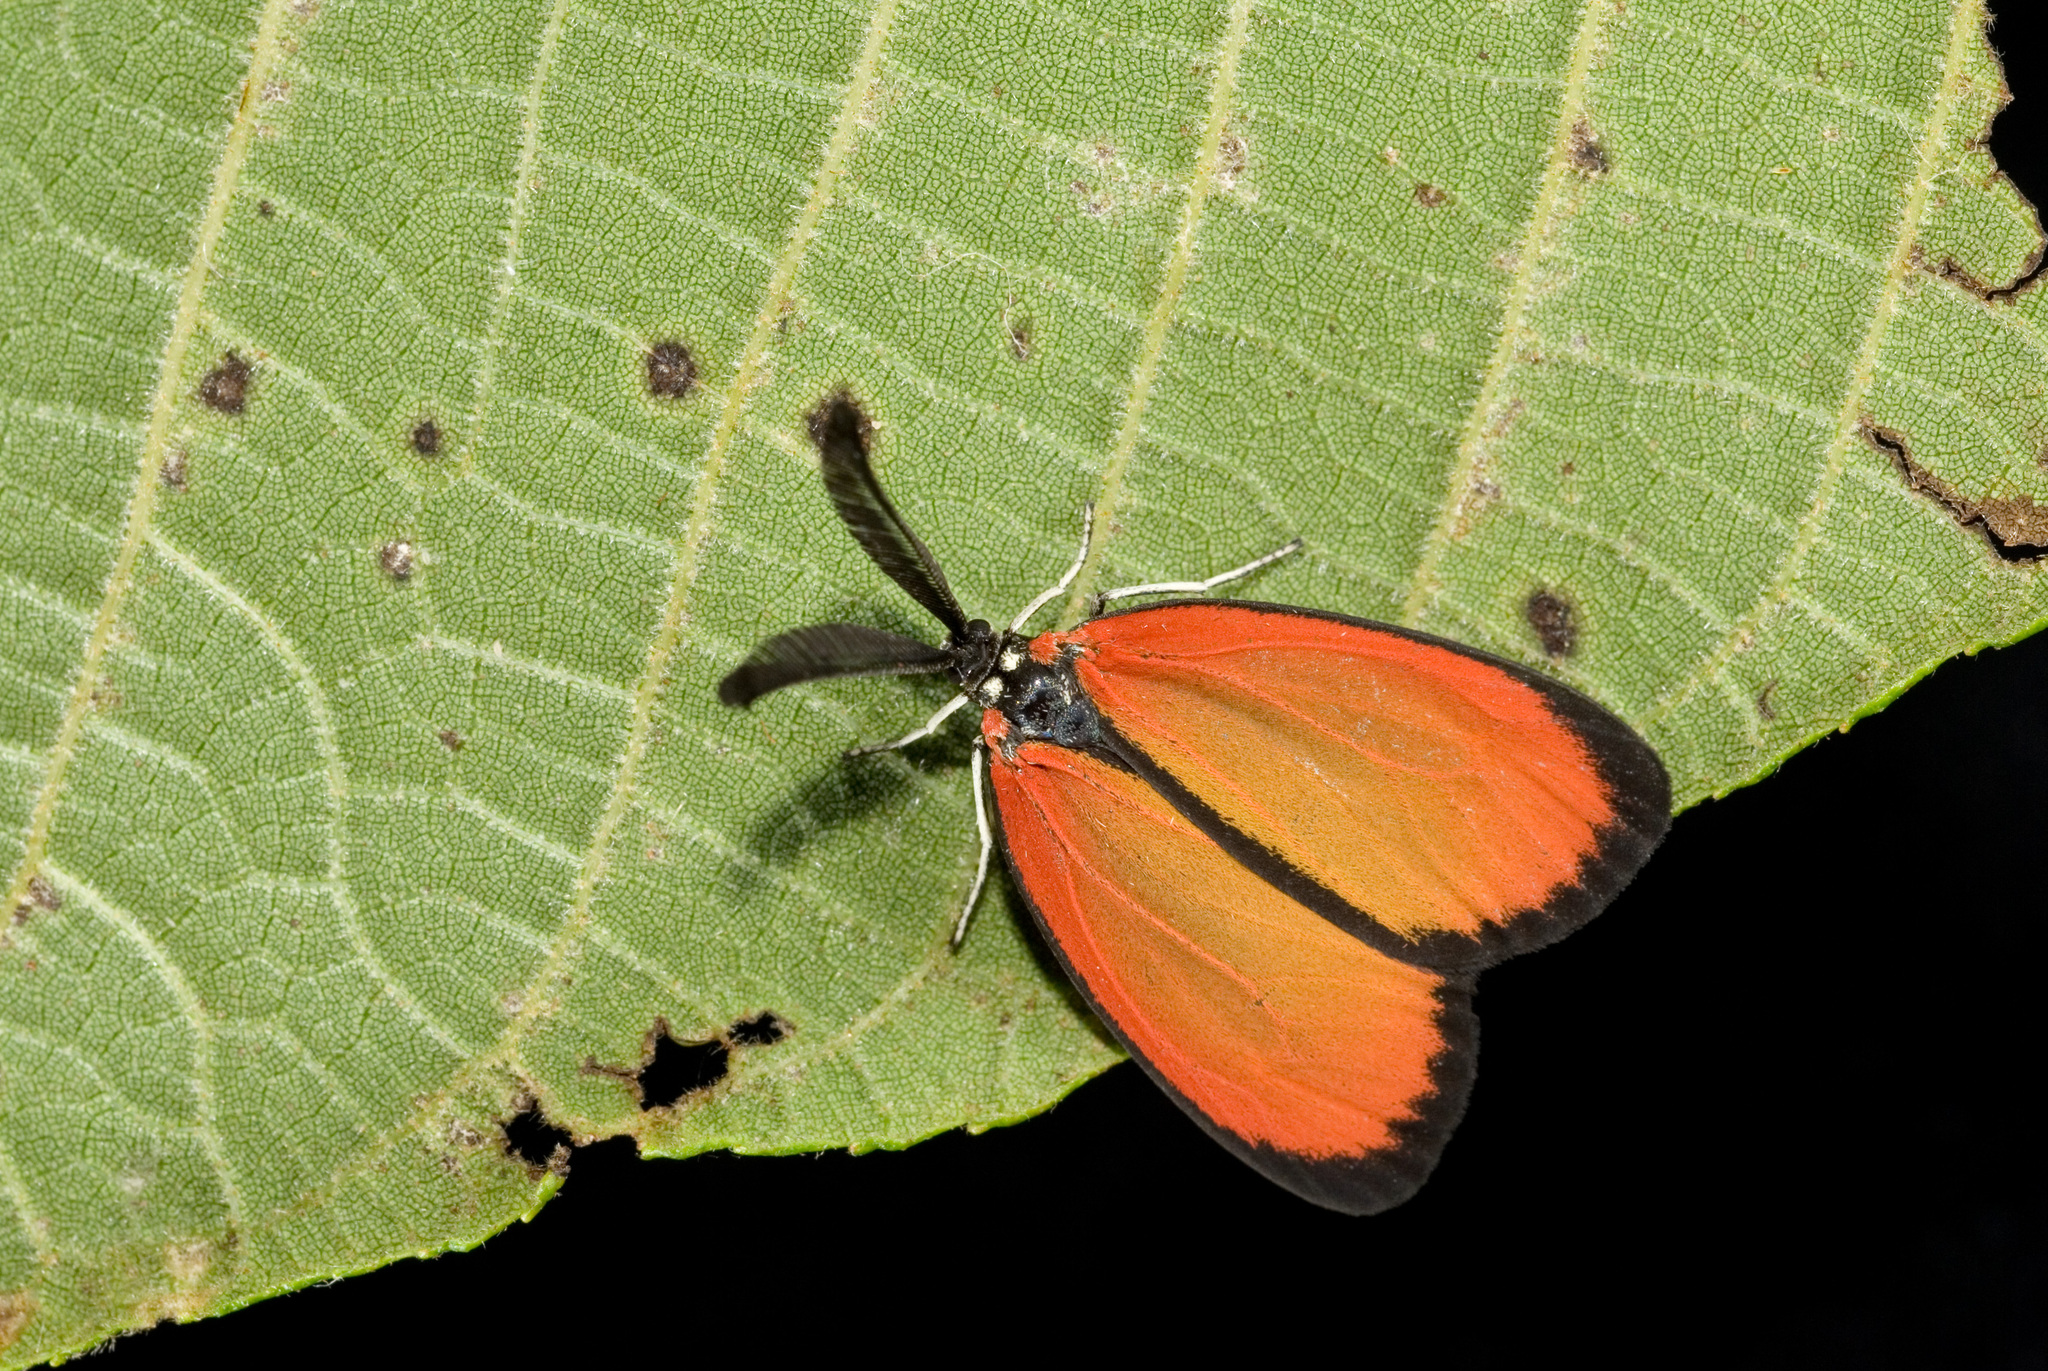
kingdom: Animalia
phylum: Arthropoda
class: Insecta
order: Lepidoptera
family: Zygaenidae
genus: Formozygaena
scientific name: Formozygaena shibatai
